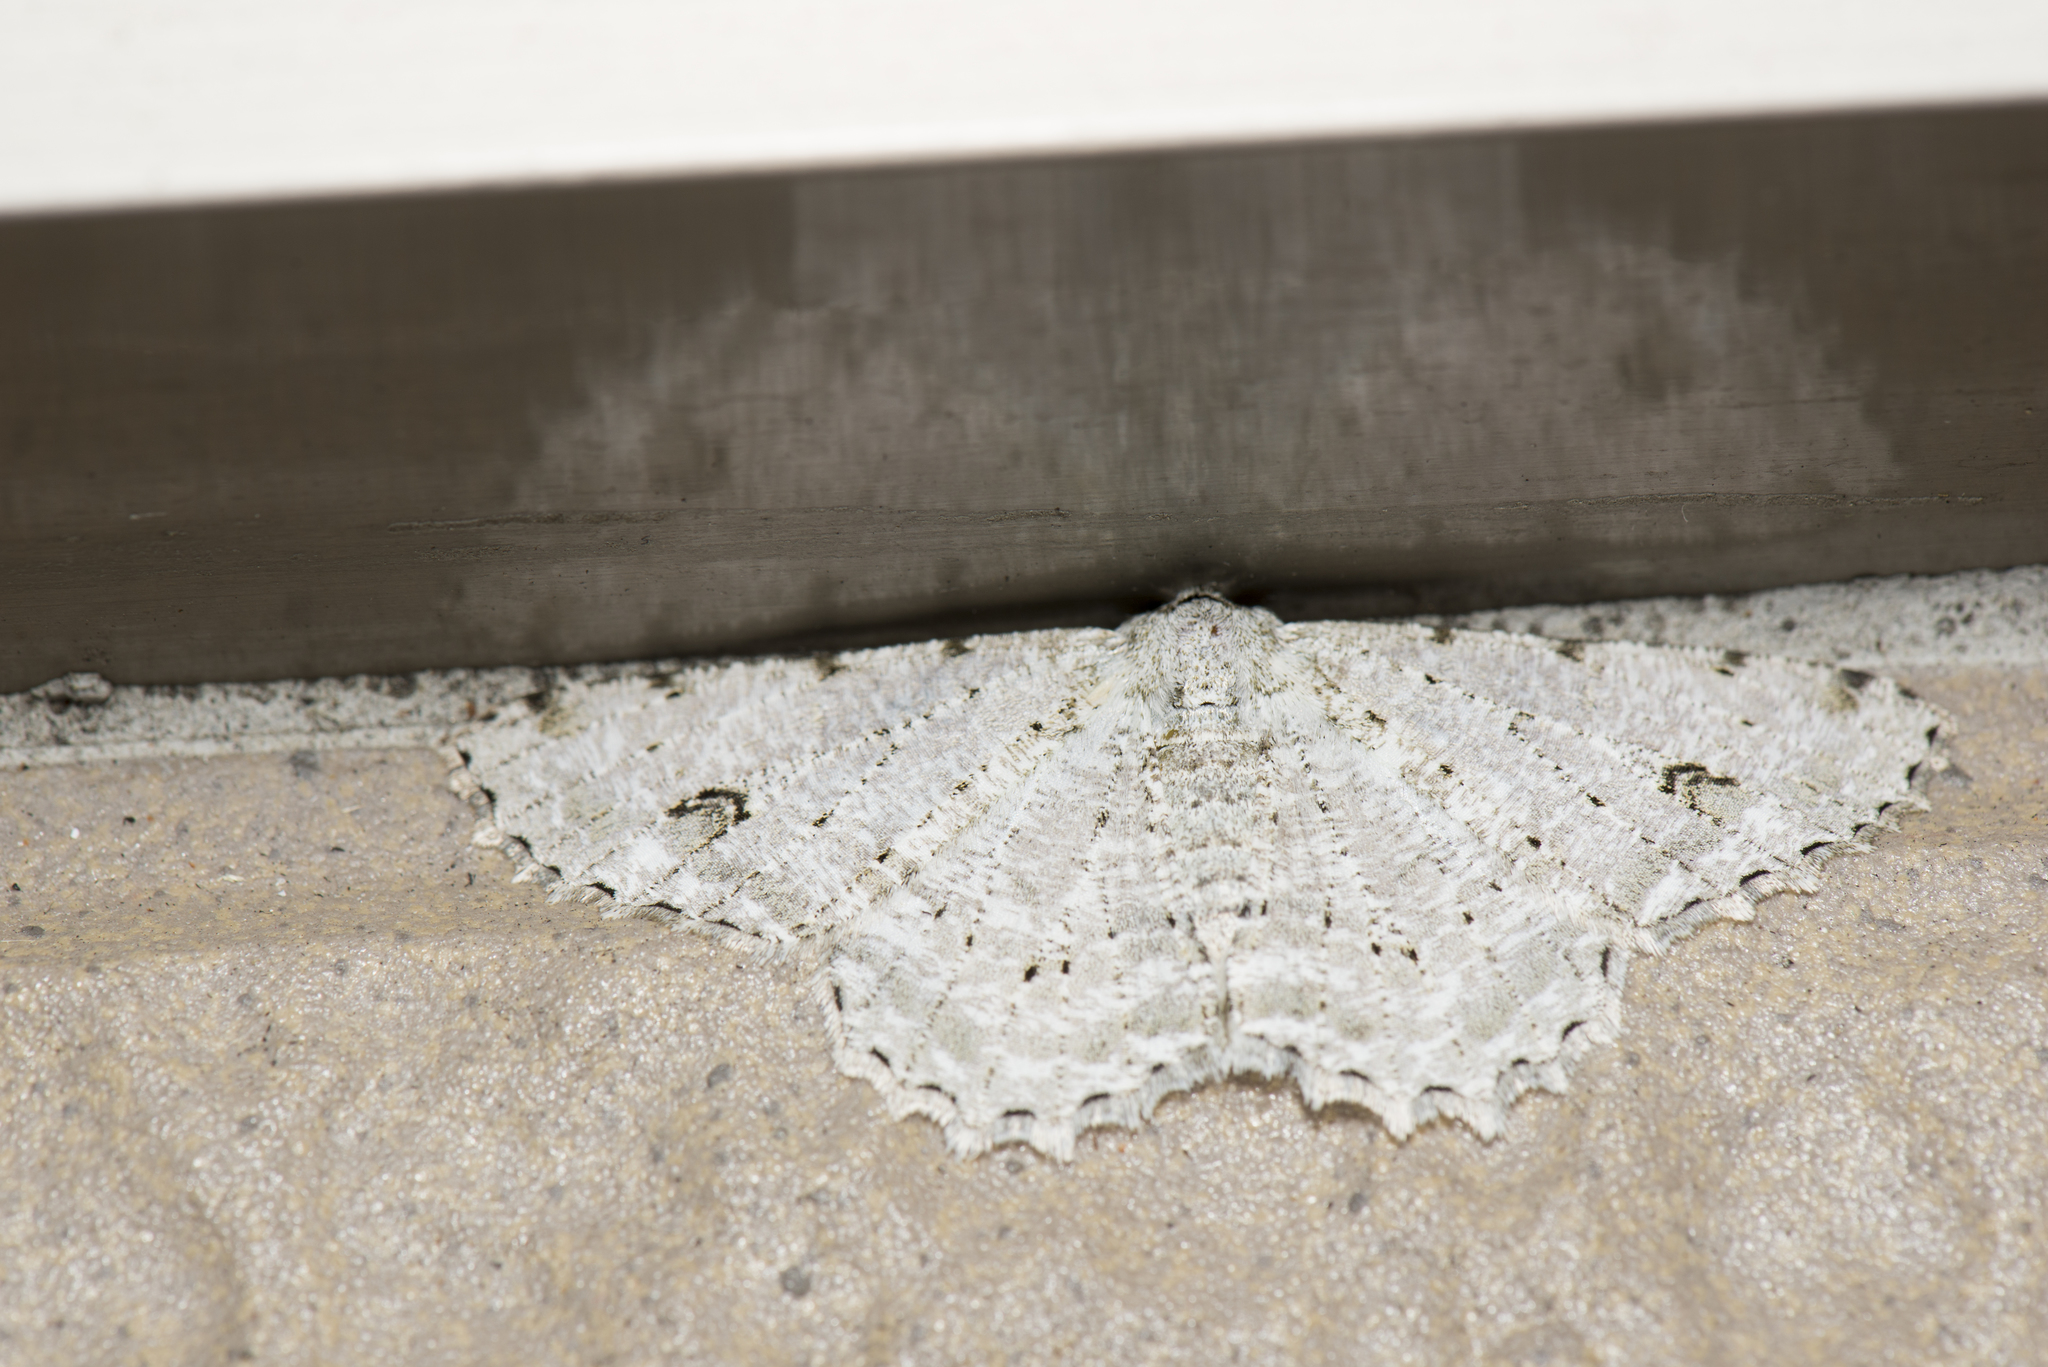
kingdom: Animalia
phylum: Arthropoda
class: Insecta
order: Lepidoptera
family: Geometridae
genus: Lassaba
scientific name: Lassaba parvalbidaria
